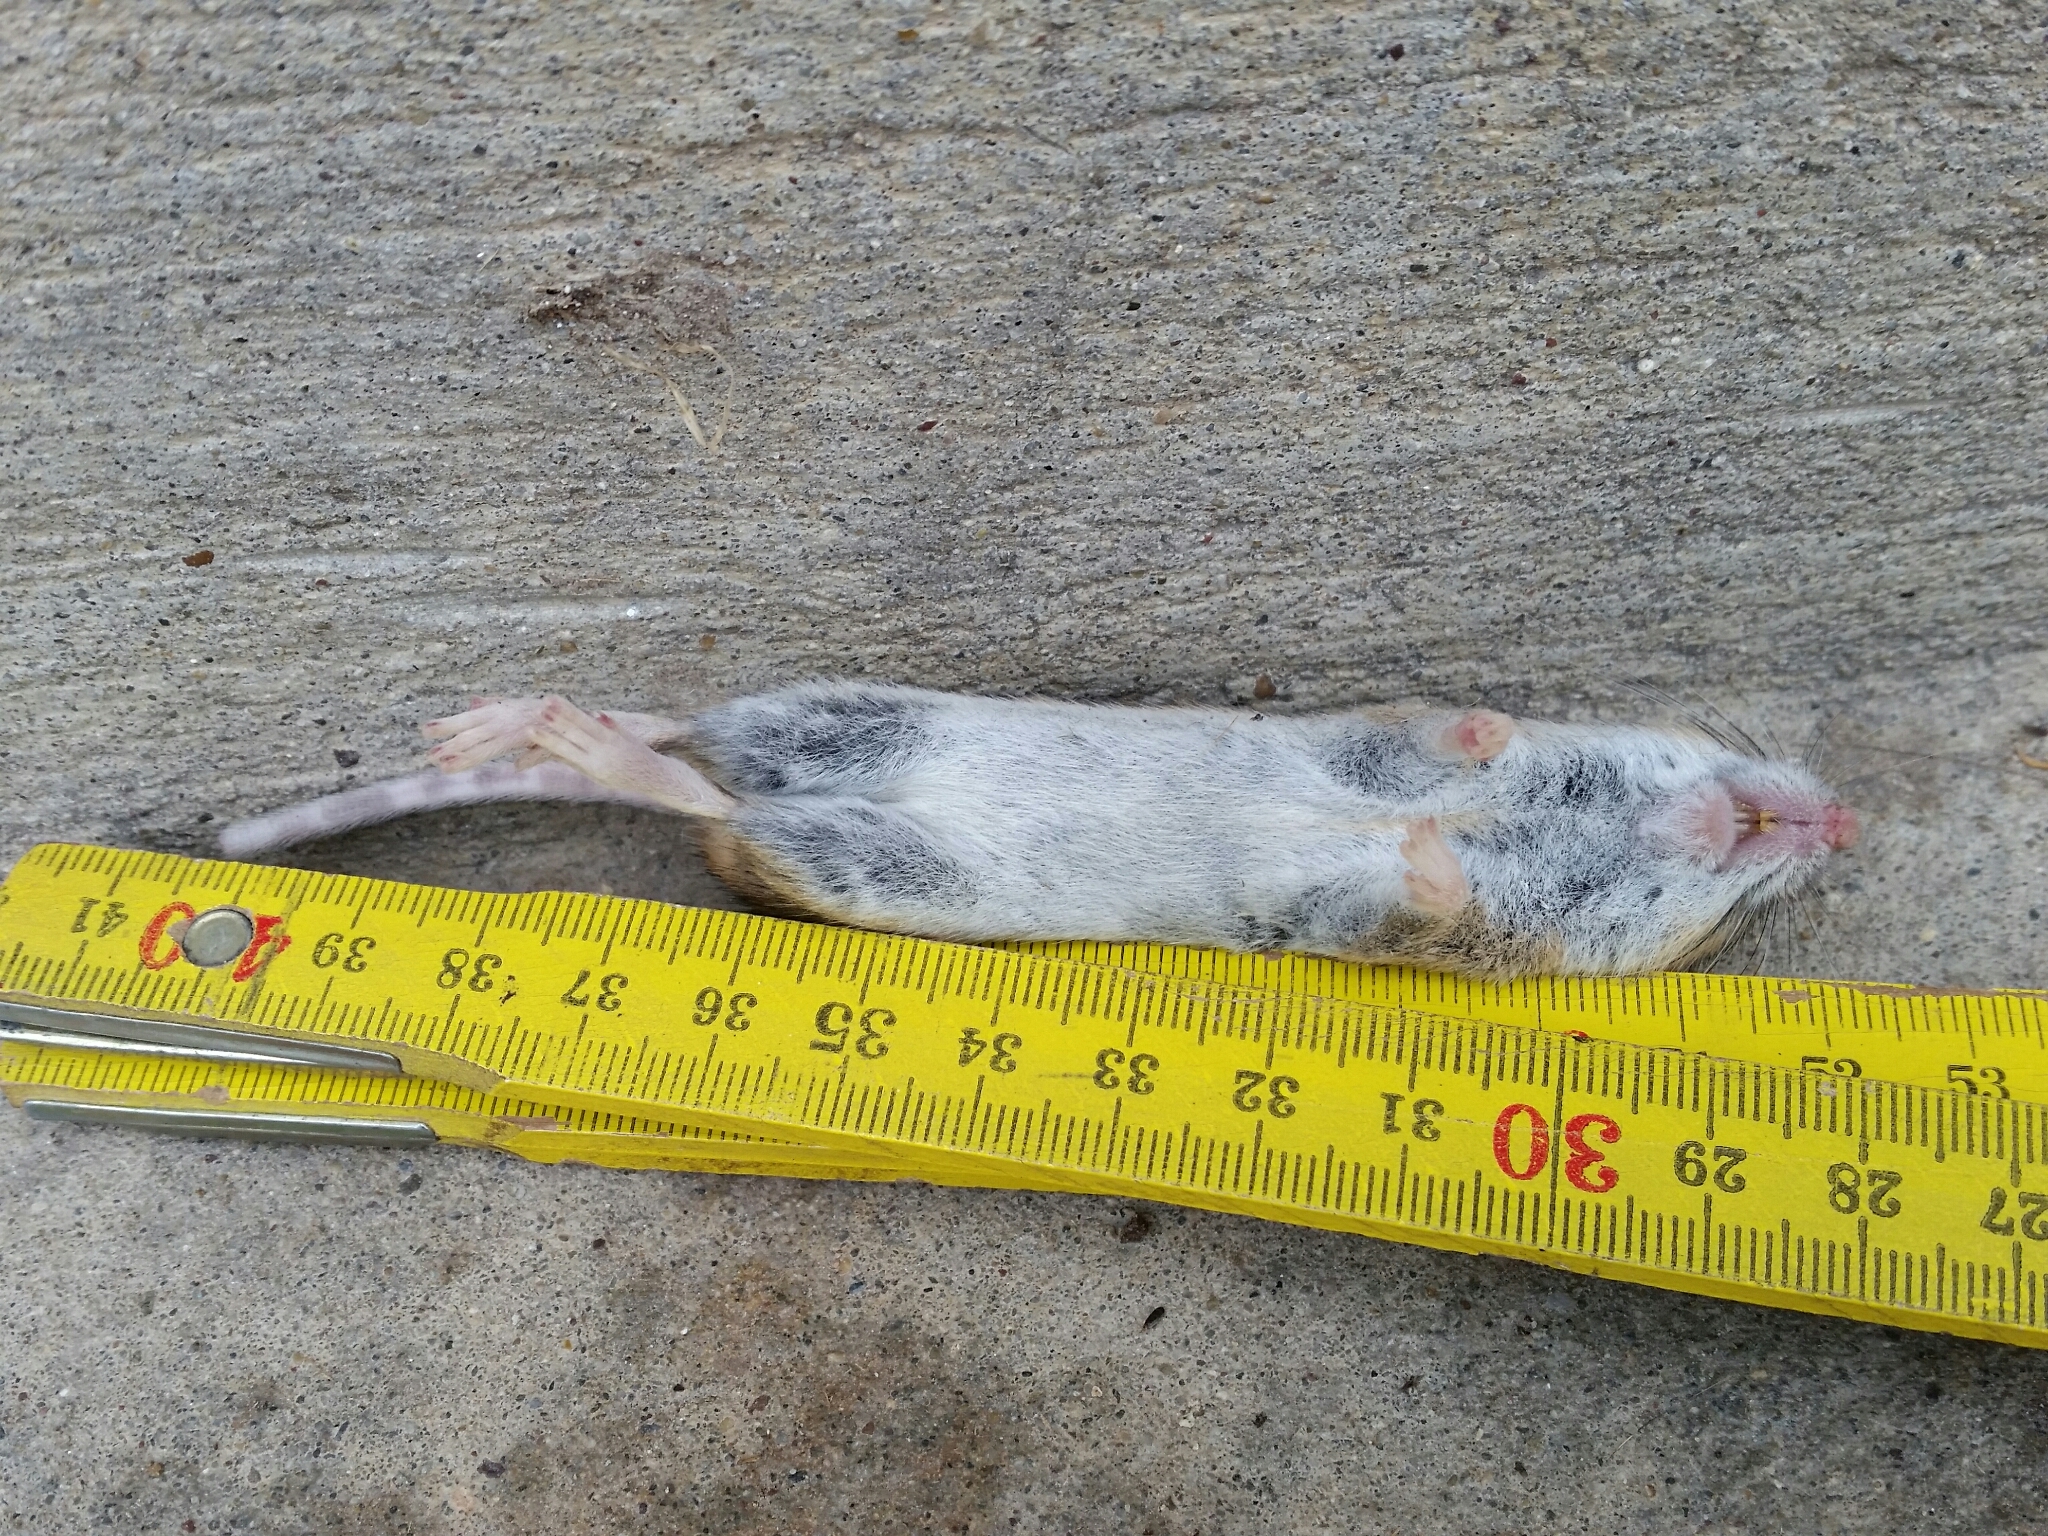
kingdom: Animalia
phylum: Chordata
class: Mammalia
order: Rodentia
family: Muridae
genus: Apodemus
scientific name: Apodemus sylvaticus
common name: Wood mouse
